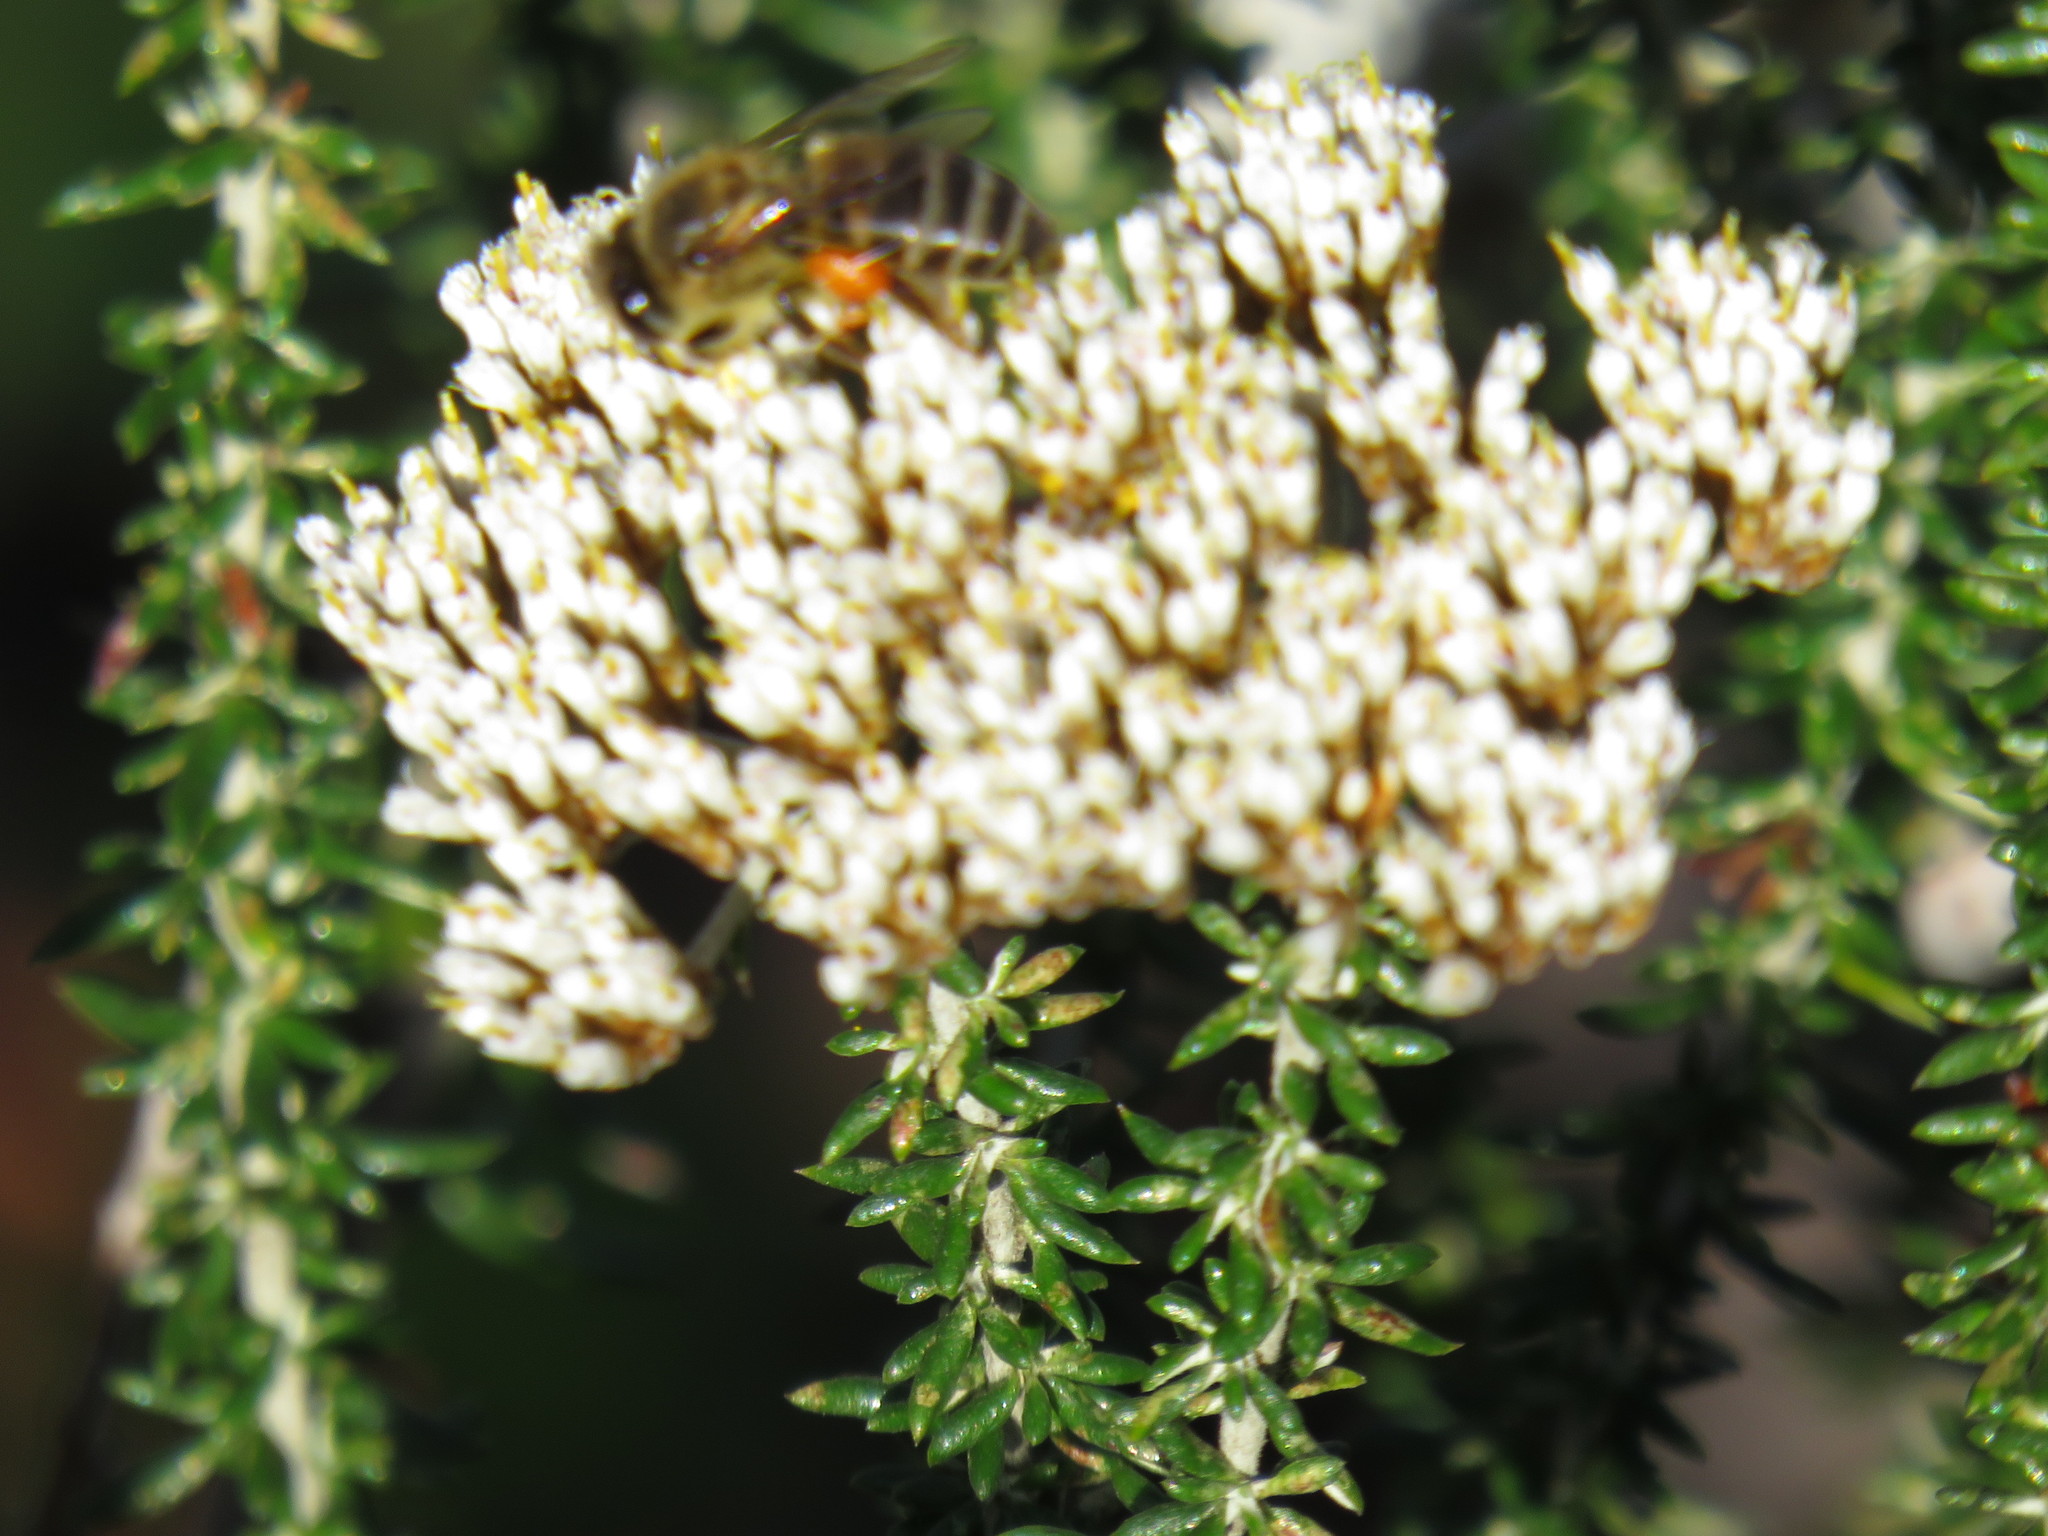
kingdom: Animalia
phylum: Arthropoda
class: Insecta
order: Hymenoptera
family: Apidae
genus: Apis
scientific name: Apis mellifera
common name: Honey bee
